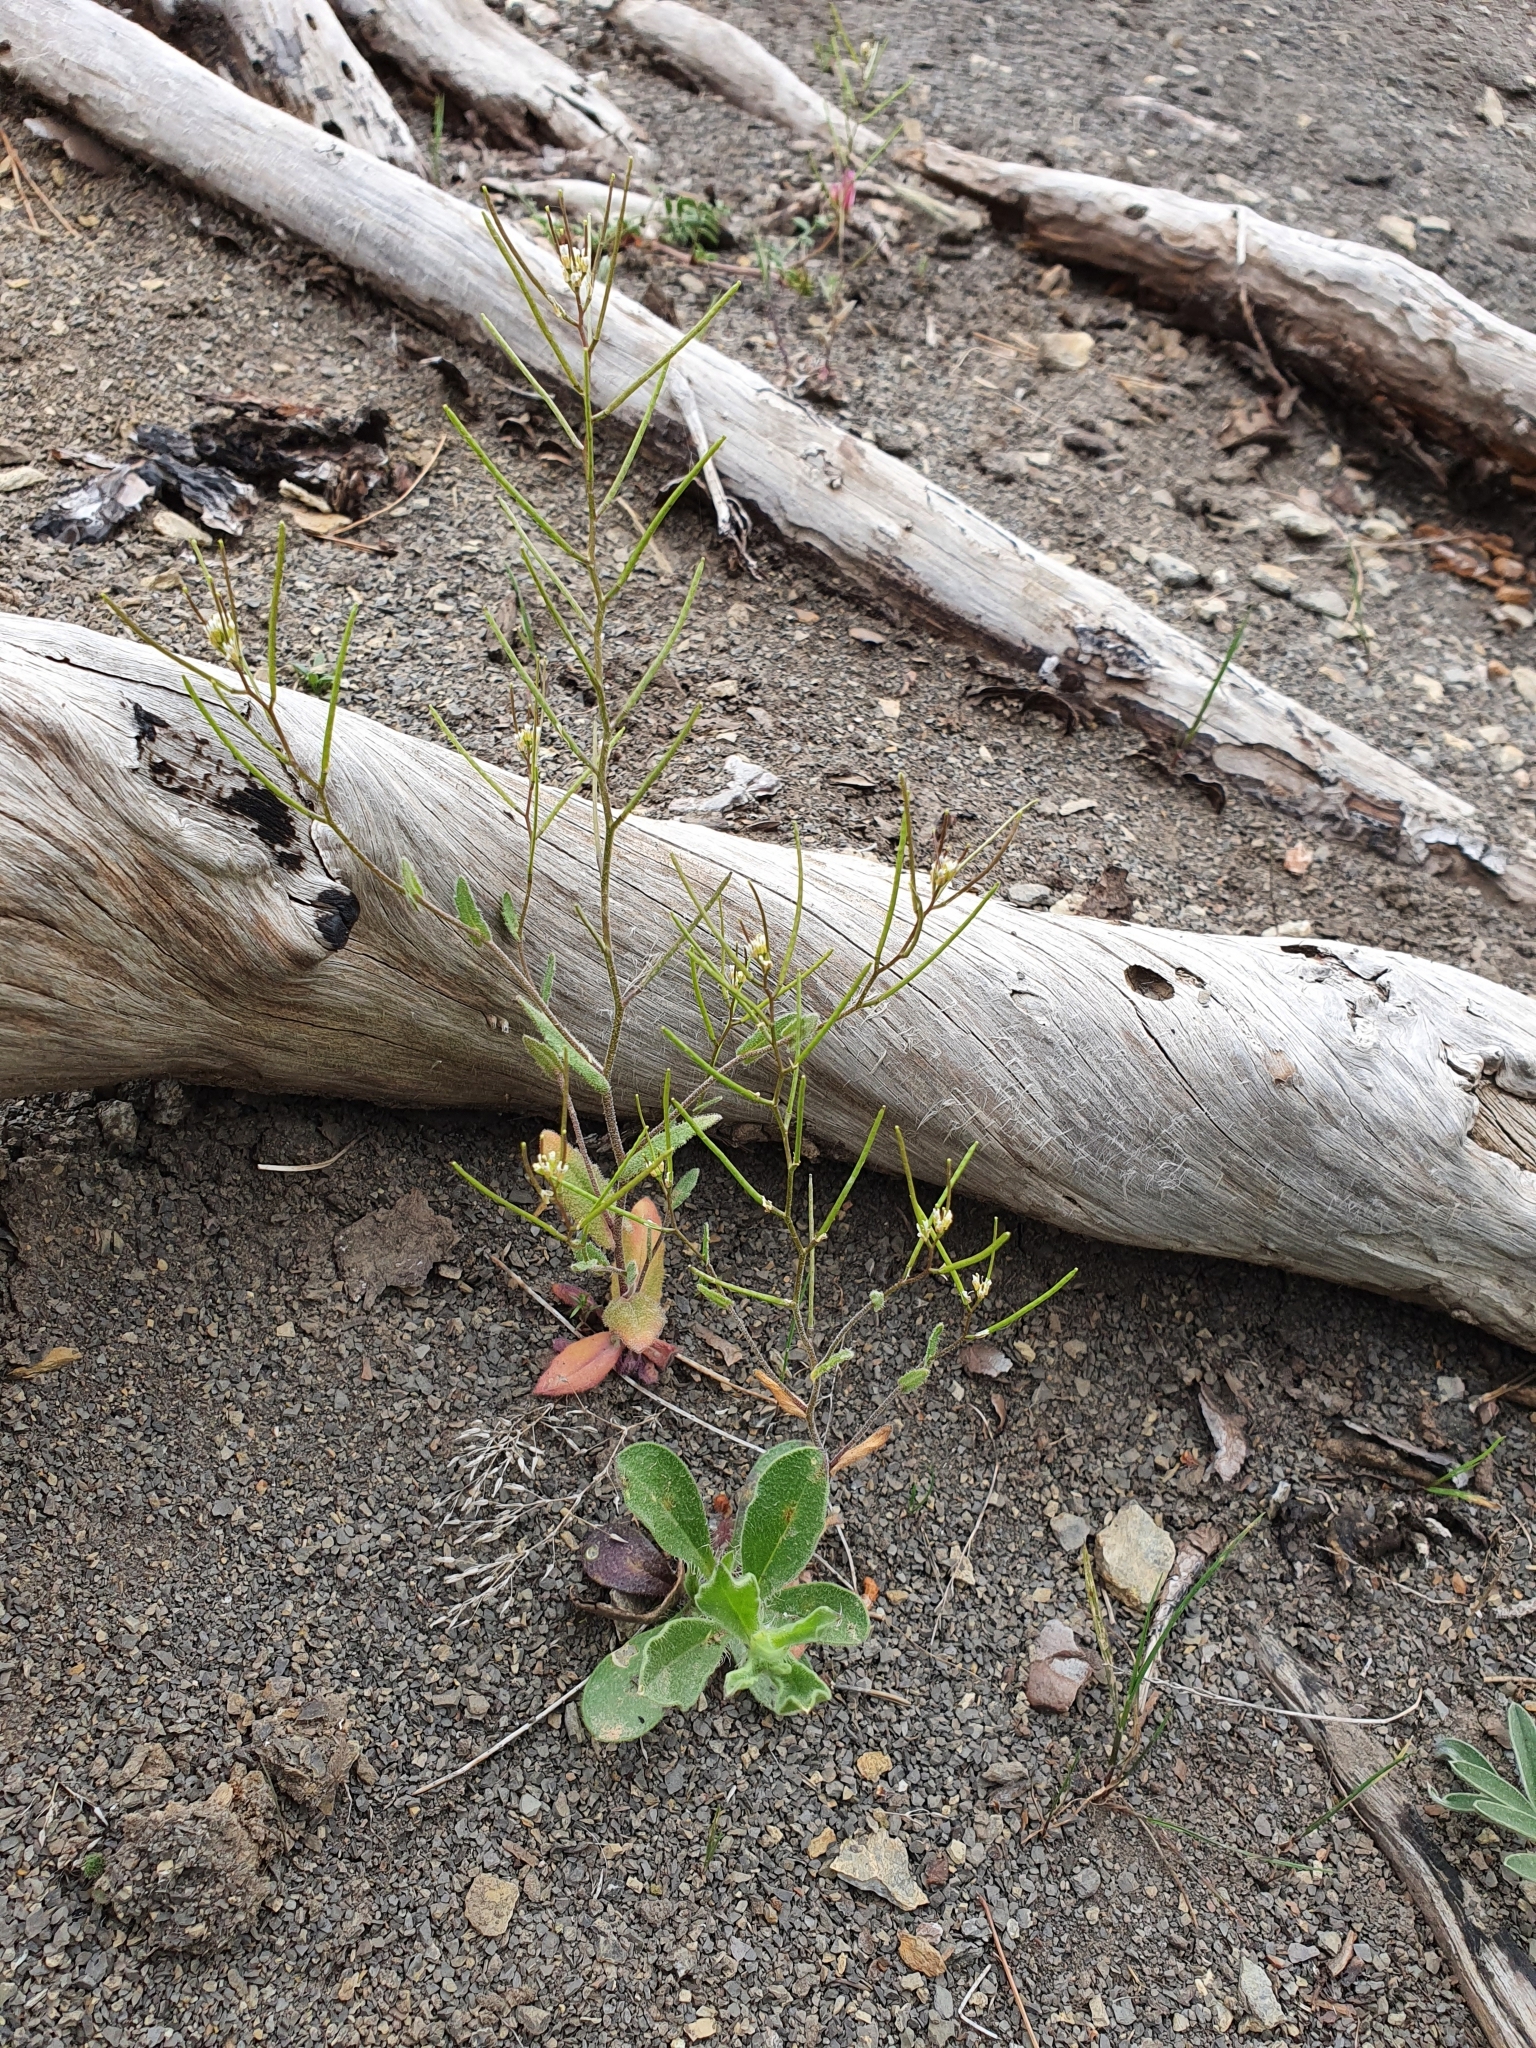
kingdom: Plantae
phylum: Tracheophyta
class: Magnoliopsida
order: Brassicales
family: Brassicaceae
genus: Arabis
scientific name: Arabis auriculata
